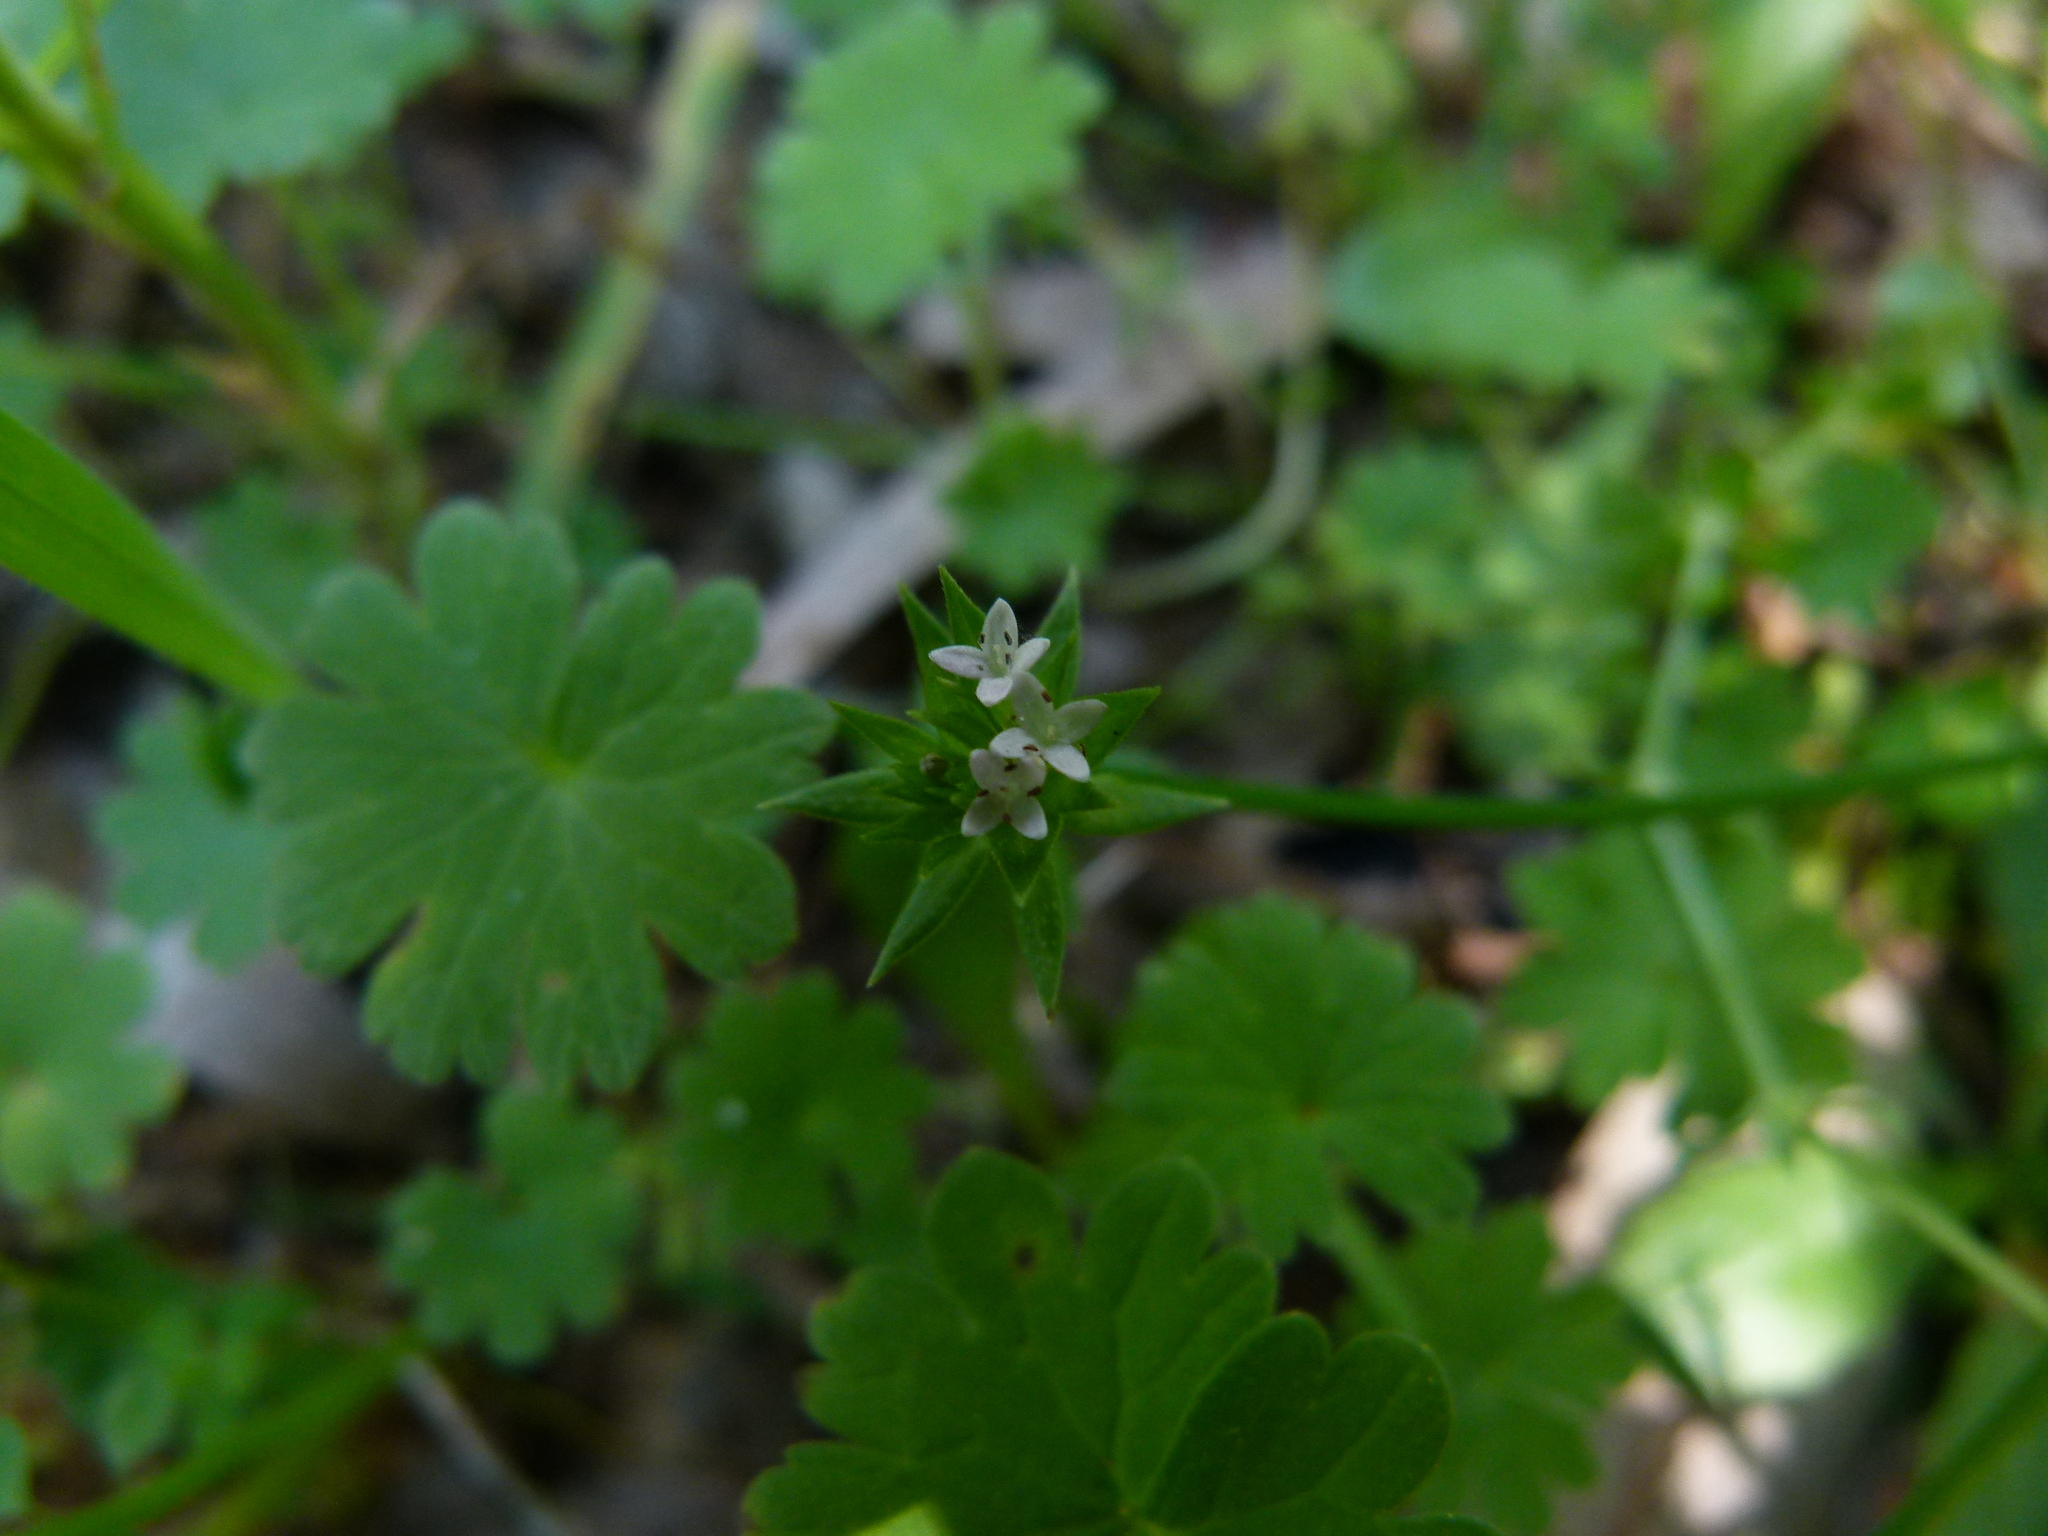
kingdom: Plantae
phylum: Tracheophyta
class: Magnoliopsida
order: Gentianales
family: Rubiaceae
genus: Sherardia
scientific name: Sherardia arvensis
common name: Field madder
